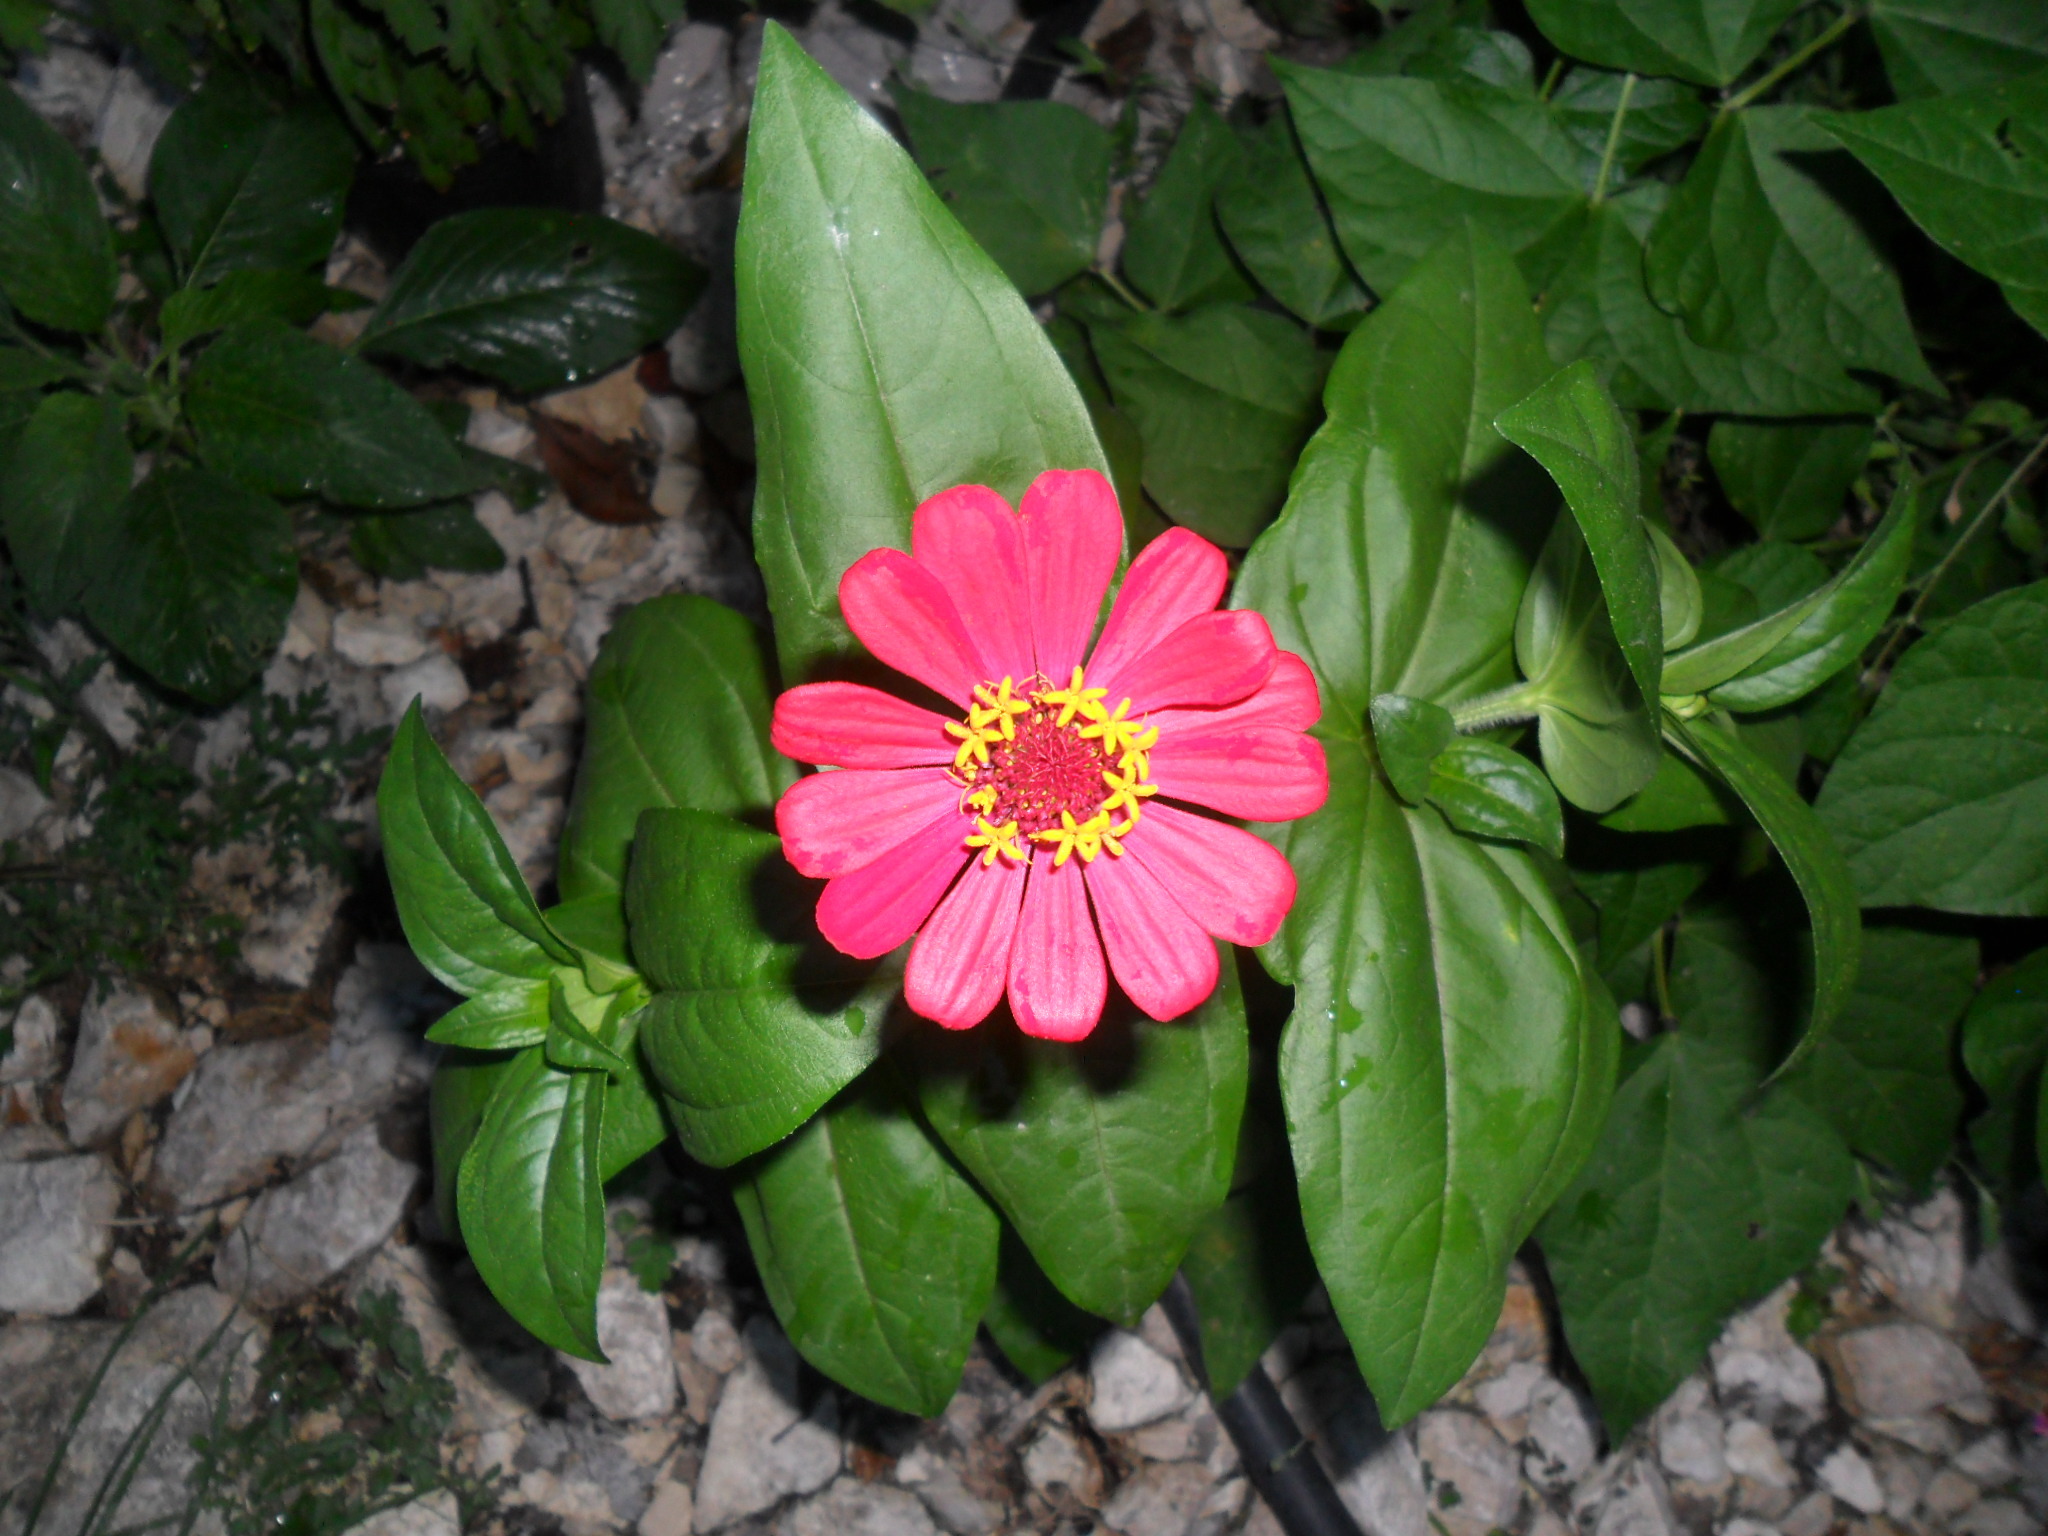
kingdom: Plantae
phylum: Tracheophyta
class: Magnoliopsida
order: Asterales
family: Asteraceae
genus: Zinnia
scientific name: Zinnia elegans
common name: Youth-and-age
